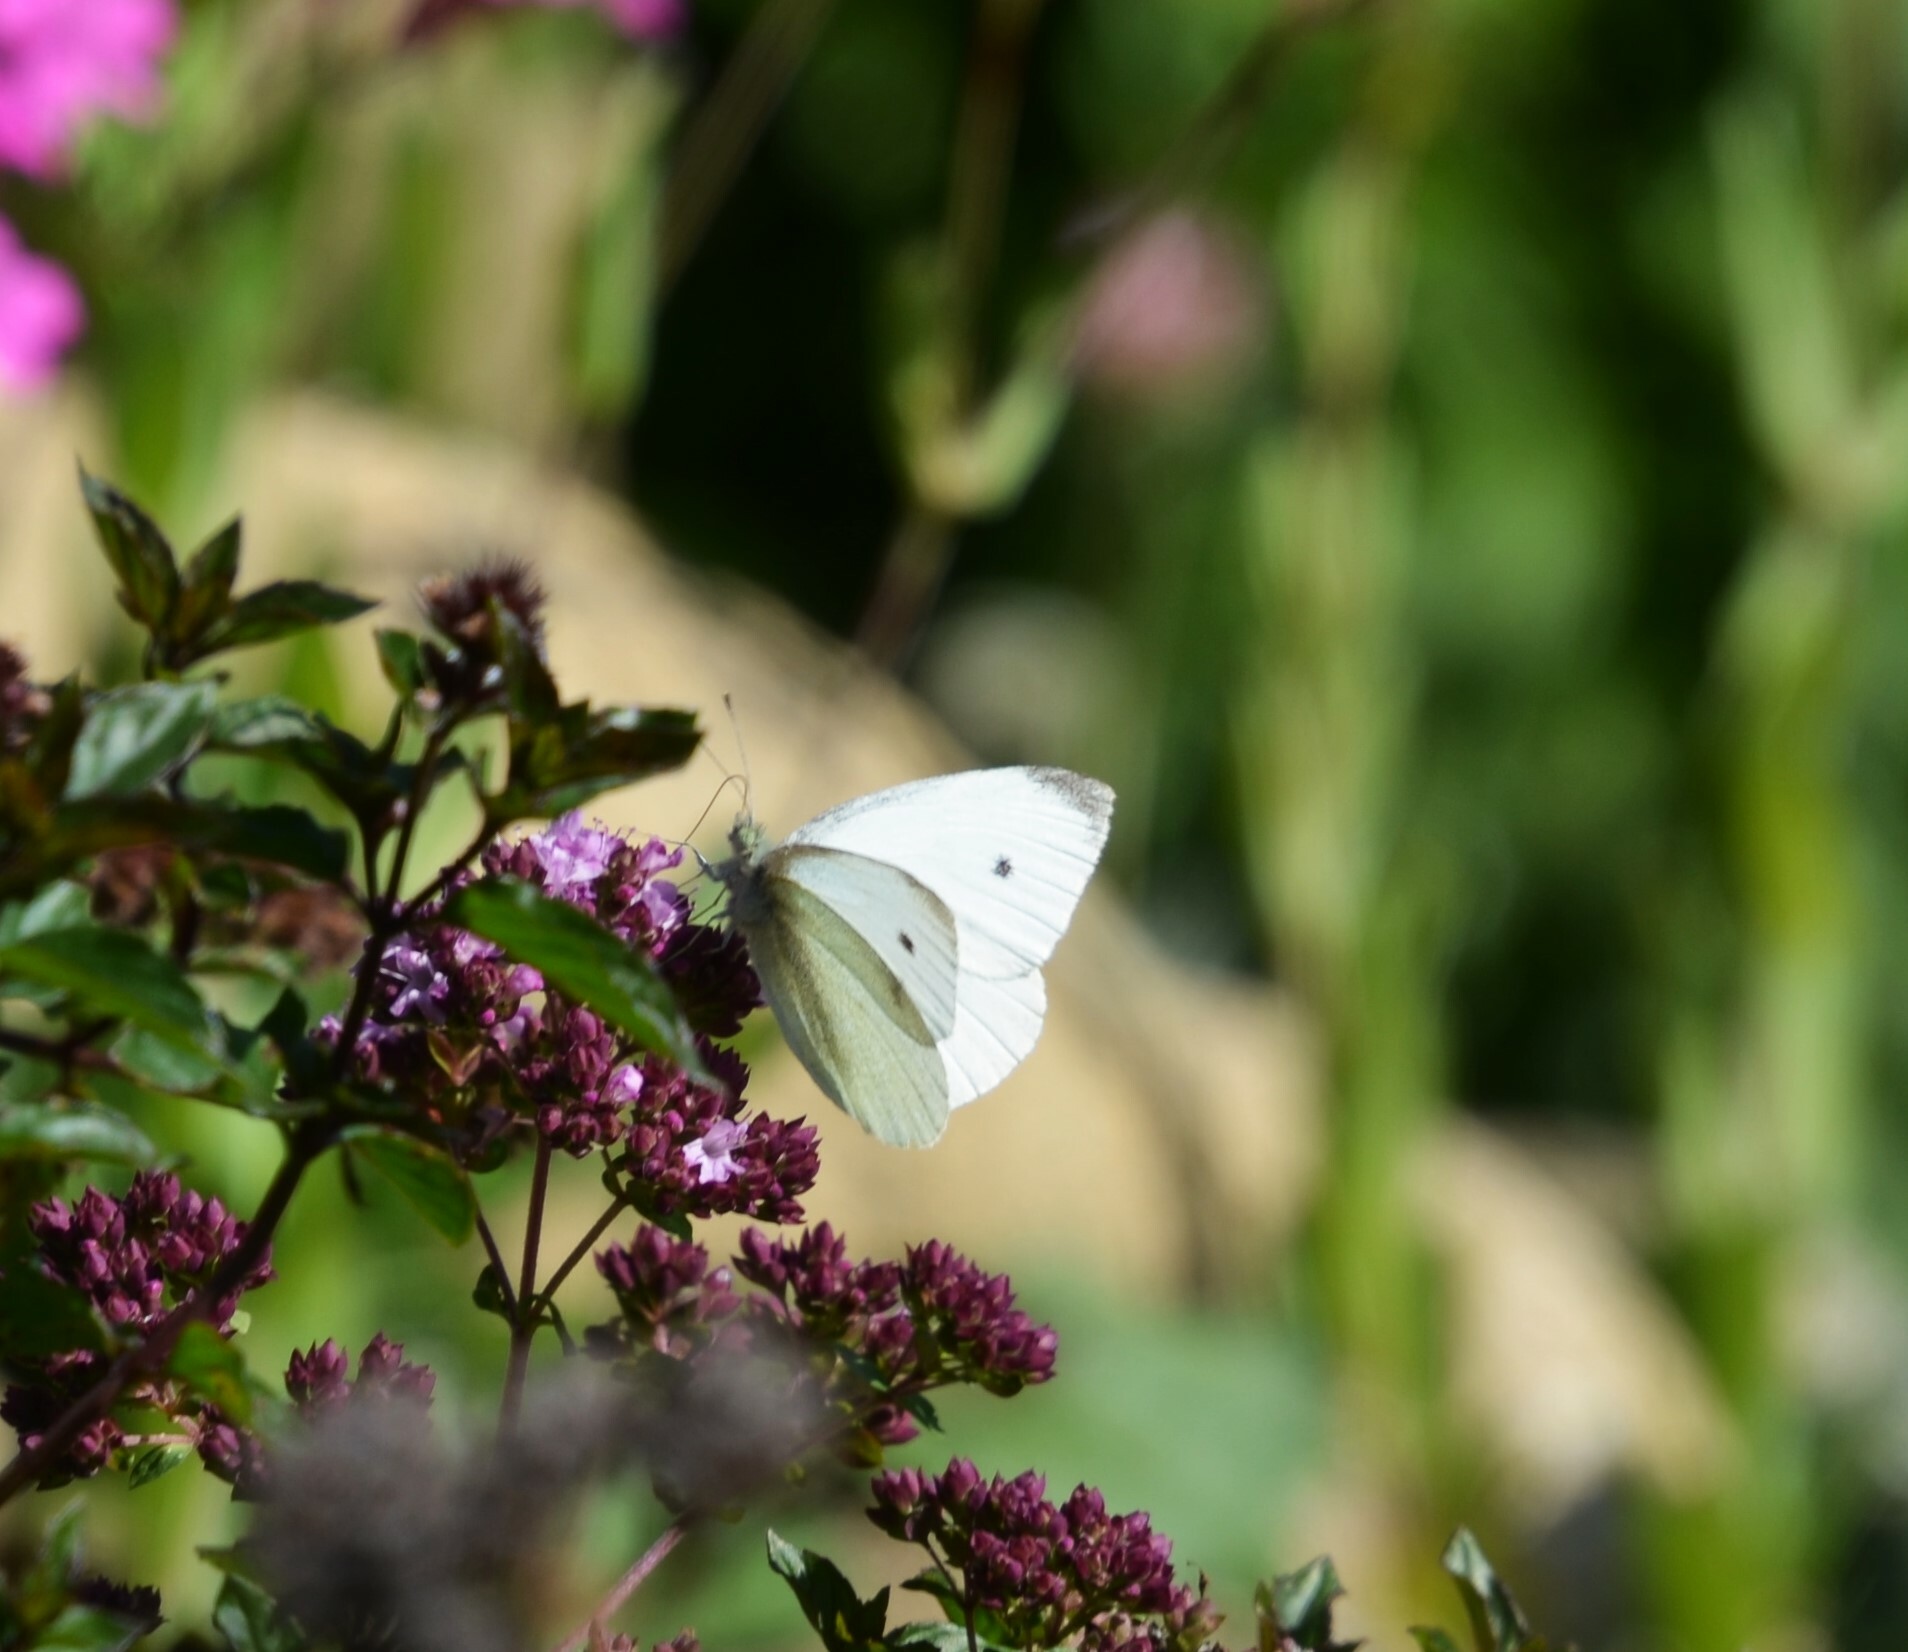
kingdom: Animalia
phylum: Arthropoda
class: Insecta
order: Lepidoptera
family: Pieridae
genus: Pieris
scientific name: Pieris rapae
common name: Small white
